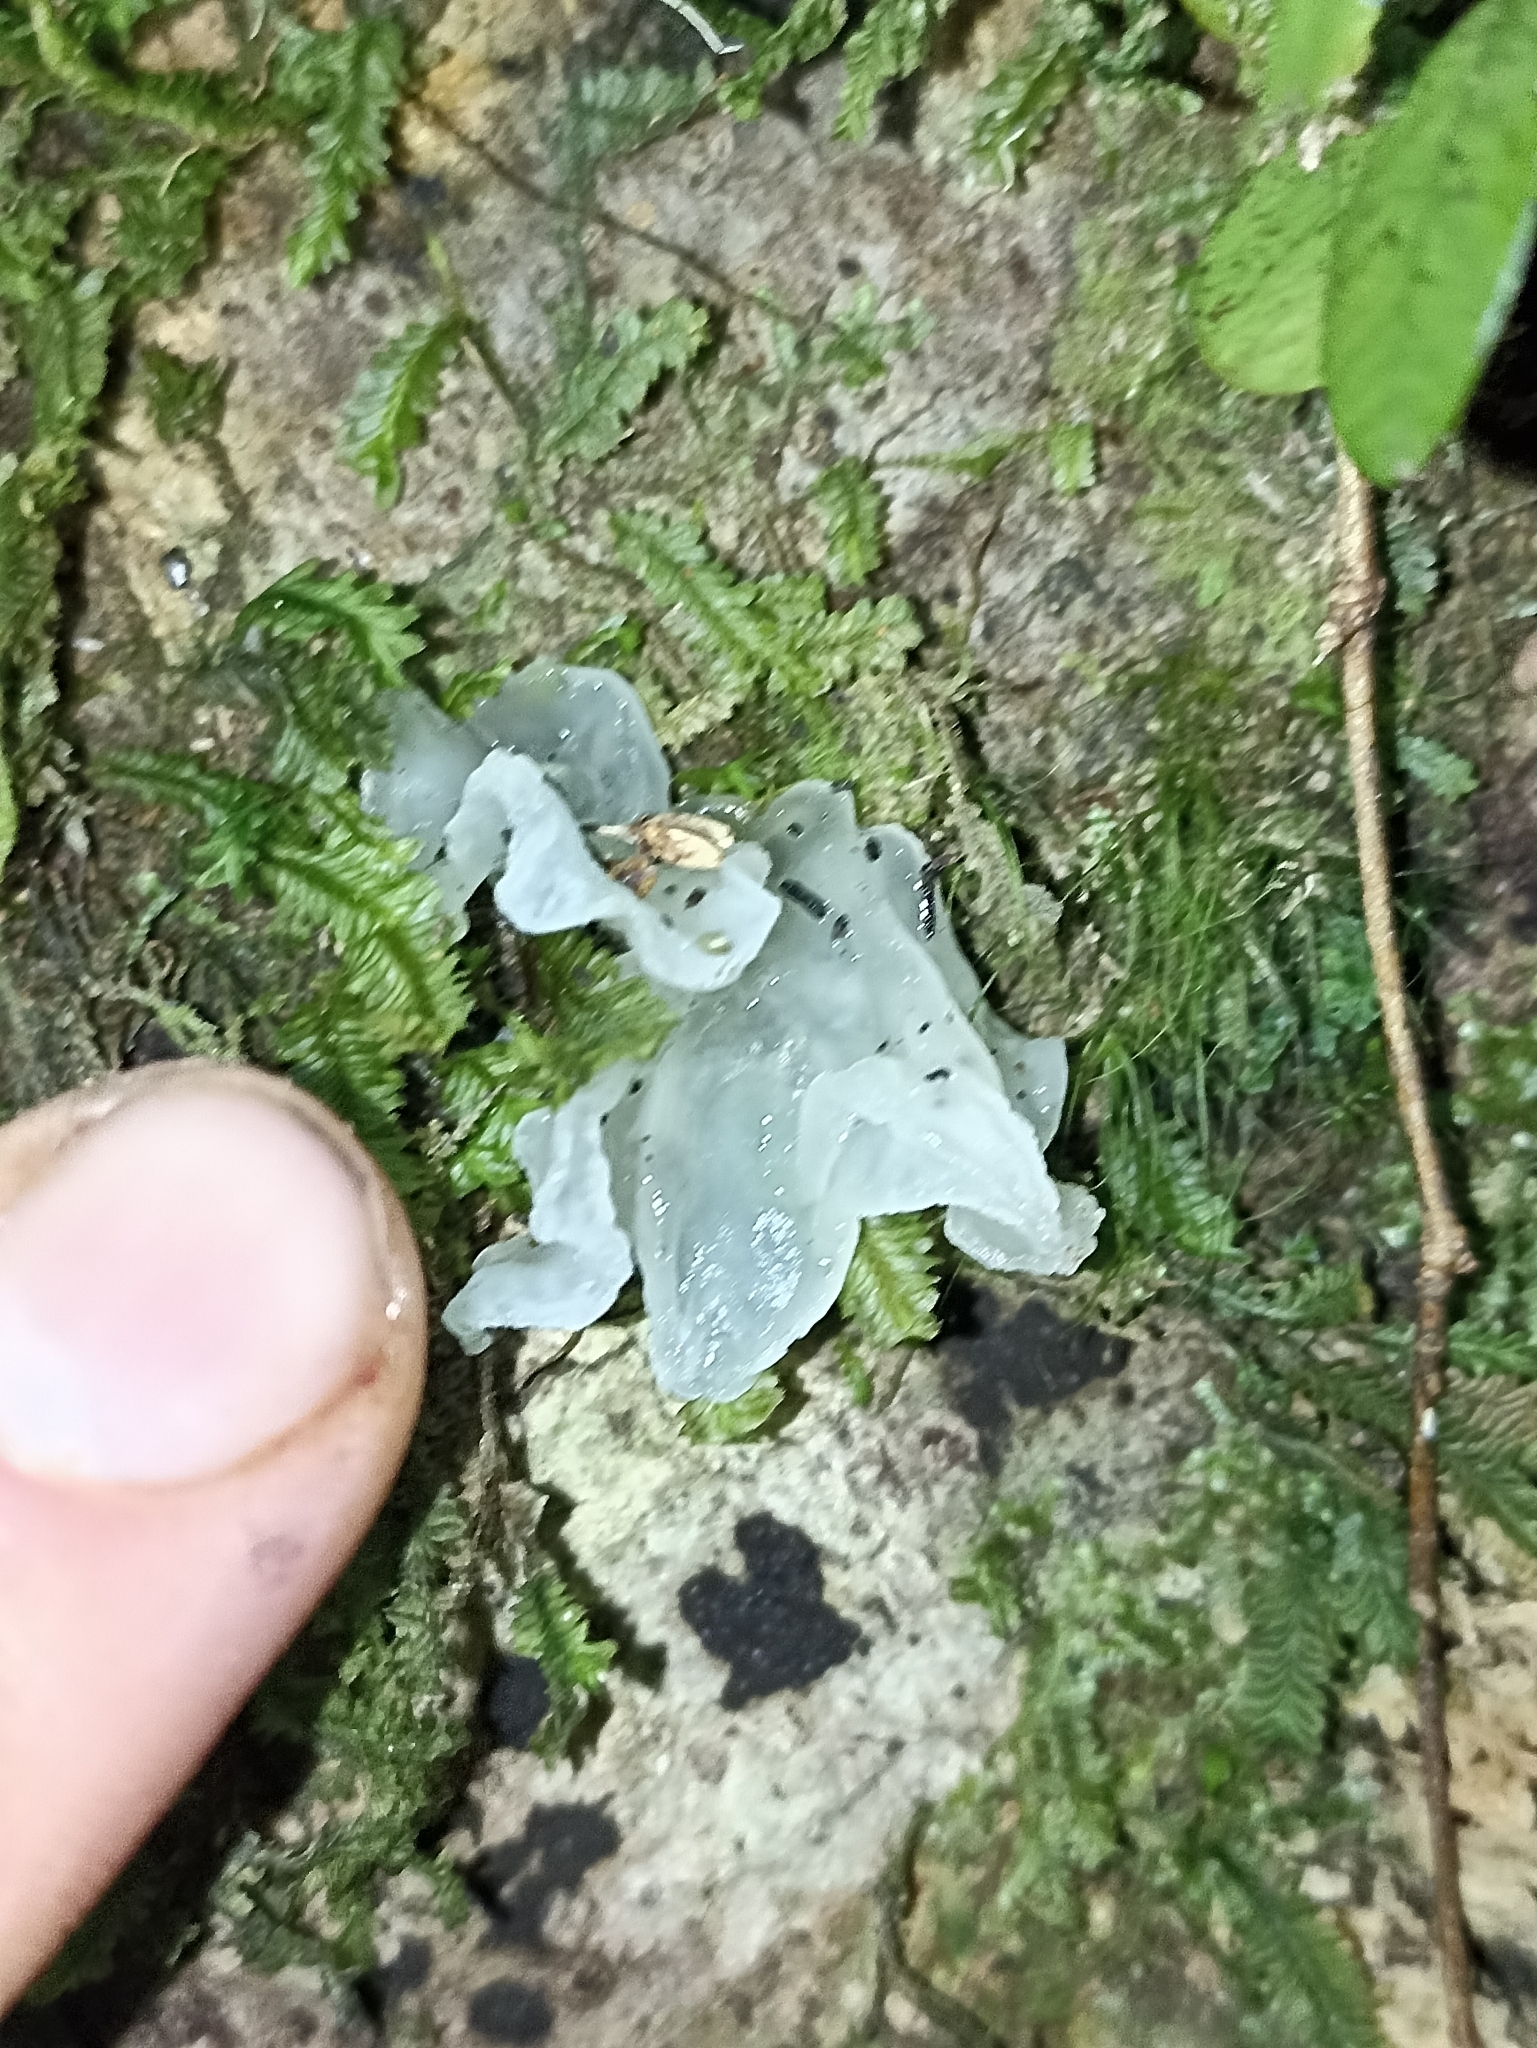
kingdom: Fungi
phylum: Basidiomycota
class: Tremellomycetes
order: Tremellales
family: Tremellaceae
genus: Tremella
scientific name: Tremella fuciformis
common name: Snow fungus
